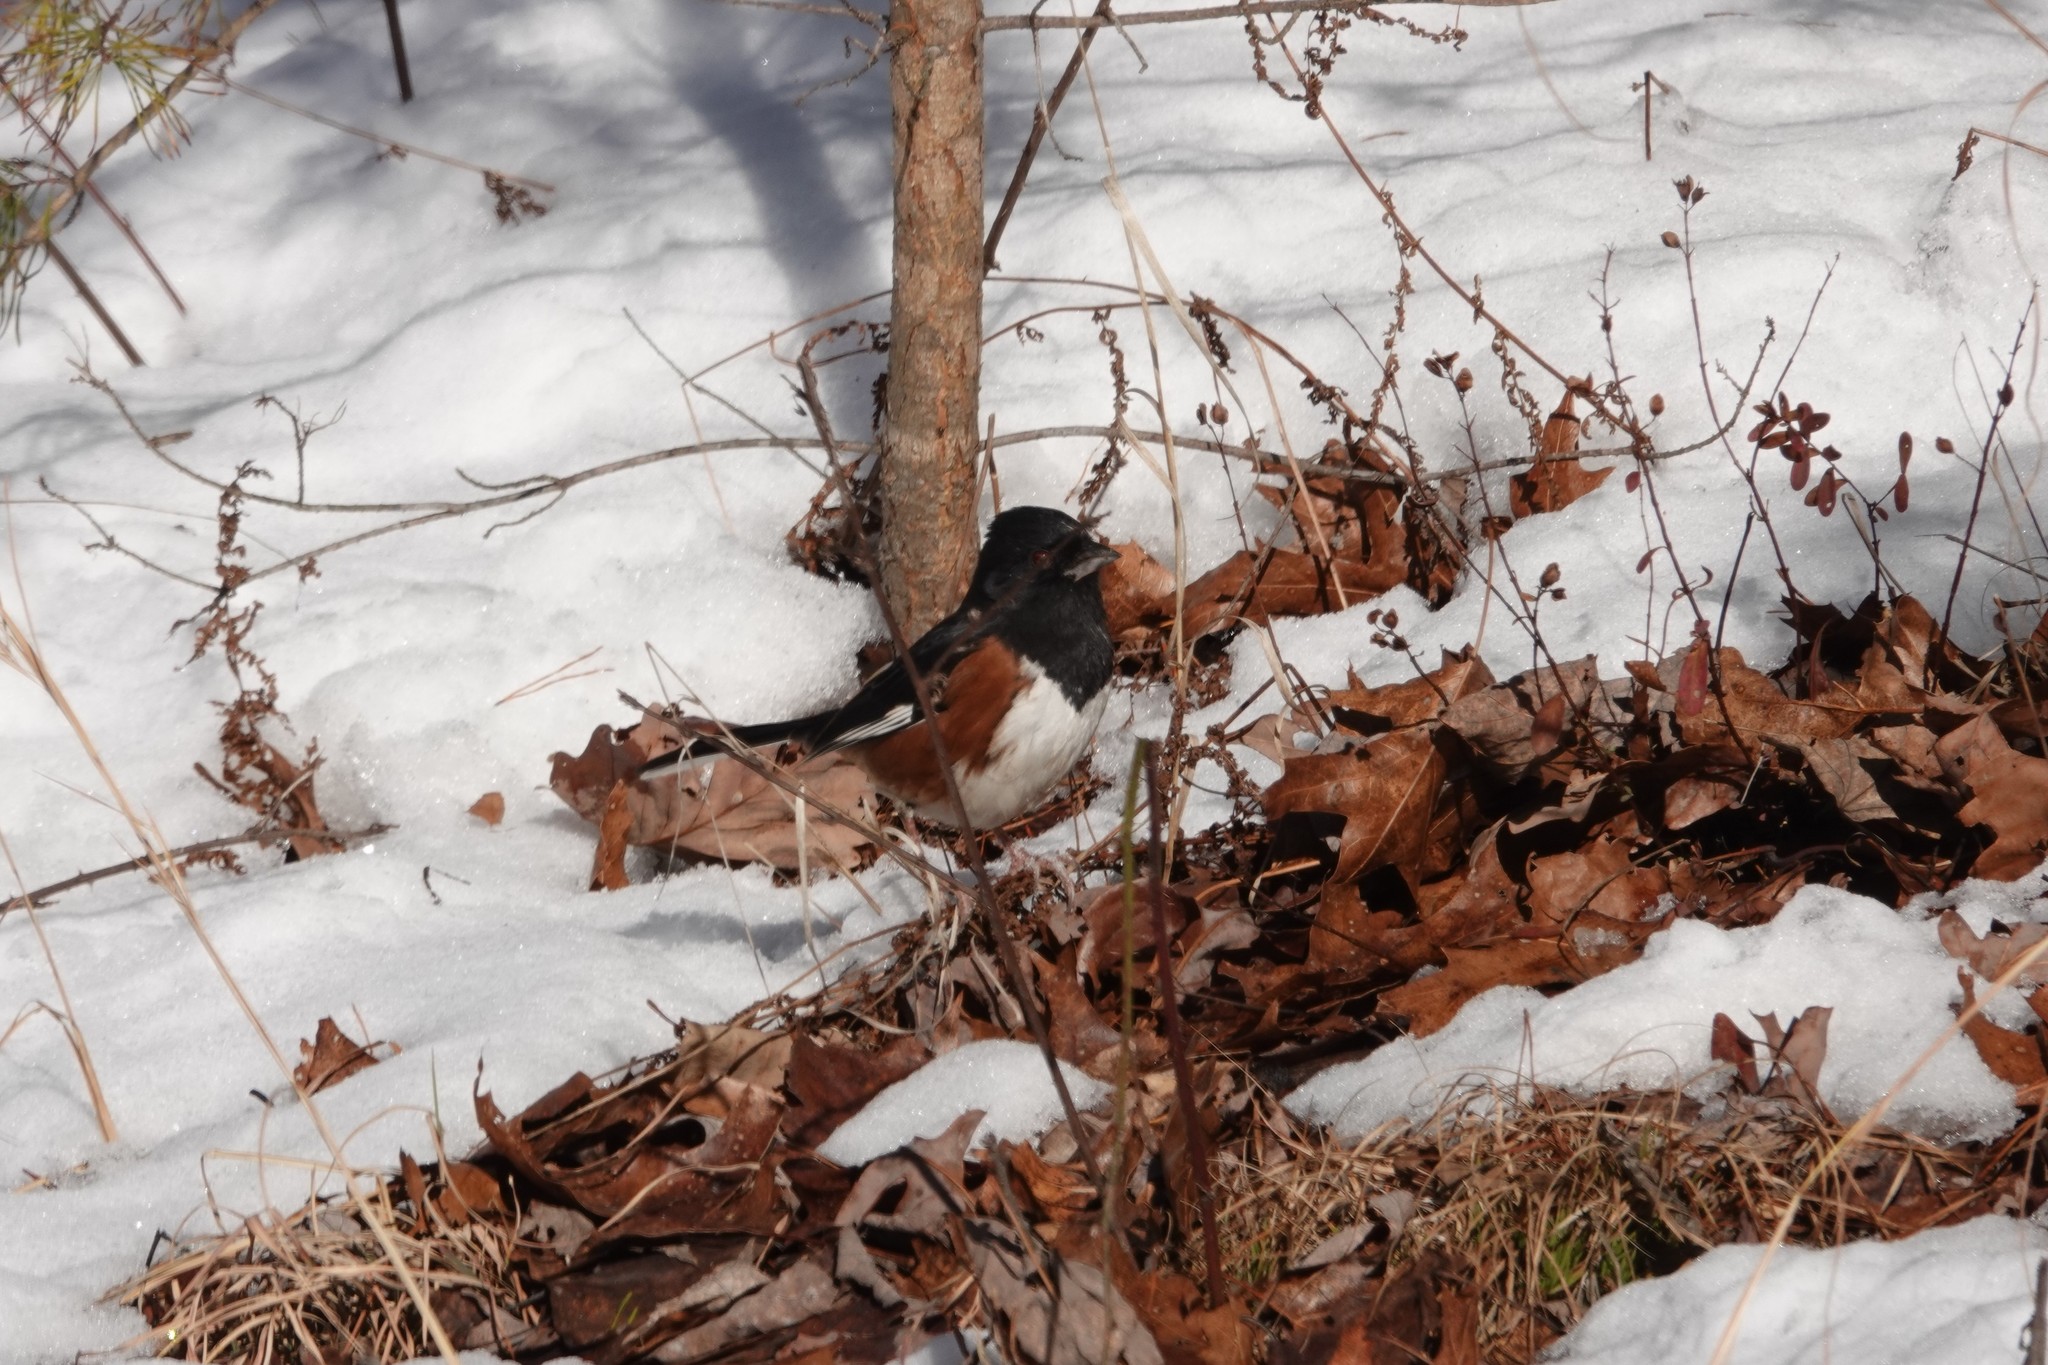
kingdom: Animalia
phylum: Chordata
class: Aves
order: Passeriformes
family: Passerellidae
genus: Pipilo
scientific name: Pipilo erythrophthalmus
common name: Eastern towhee
